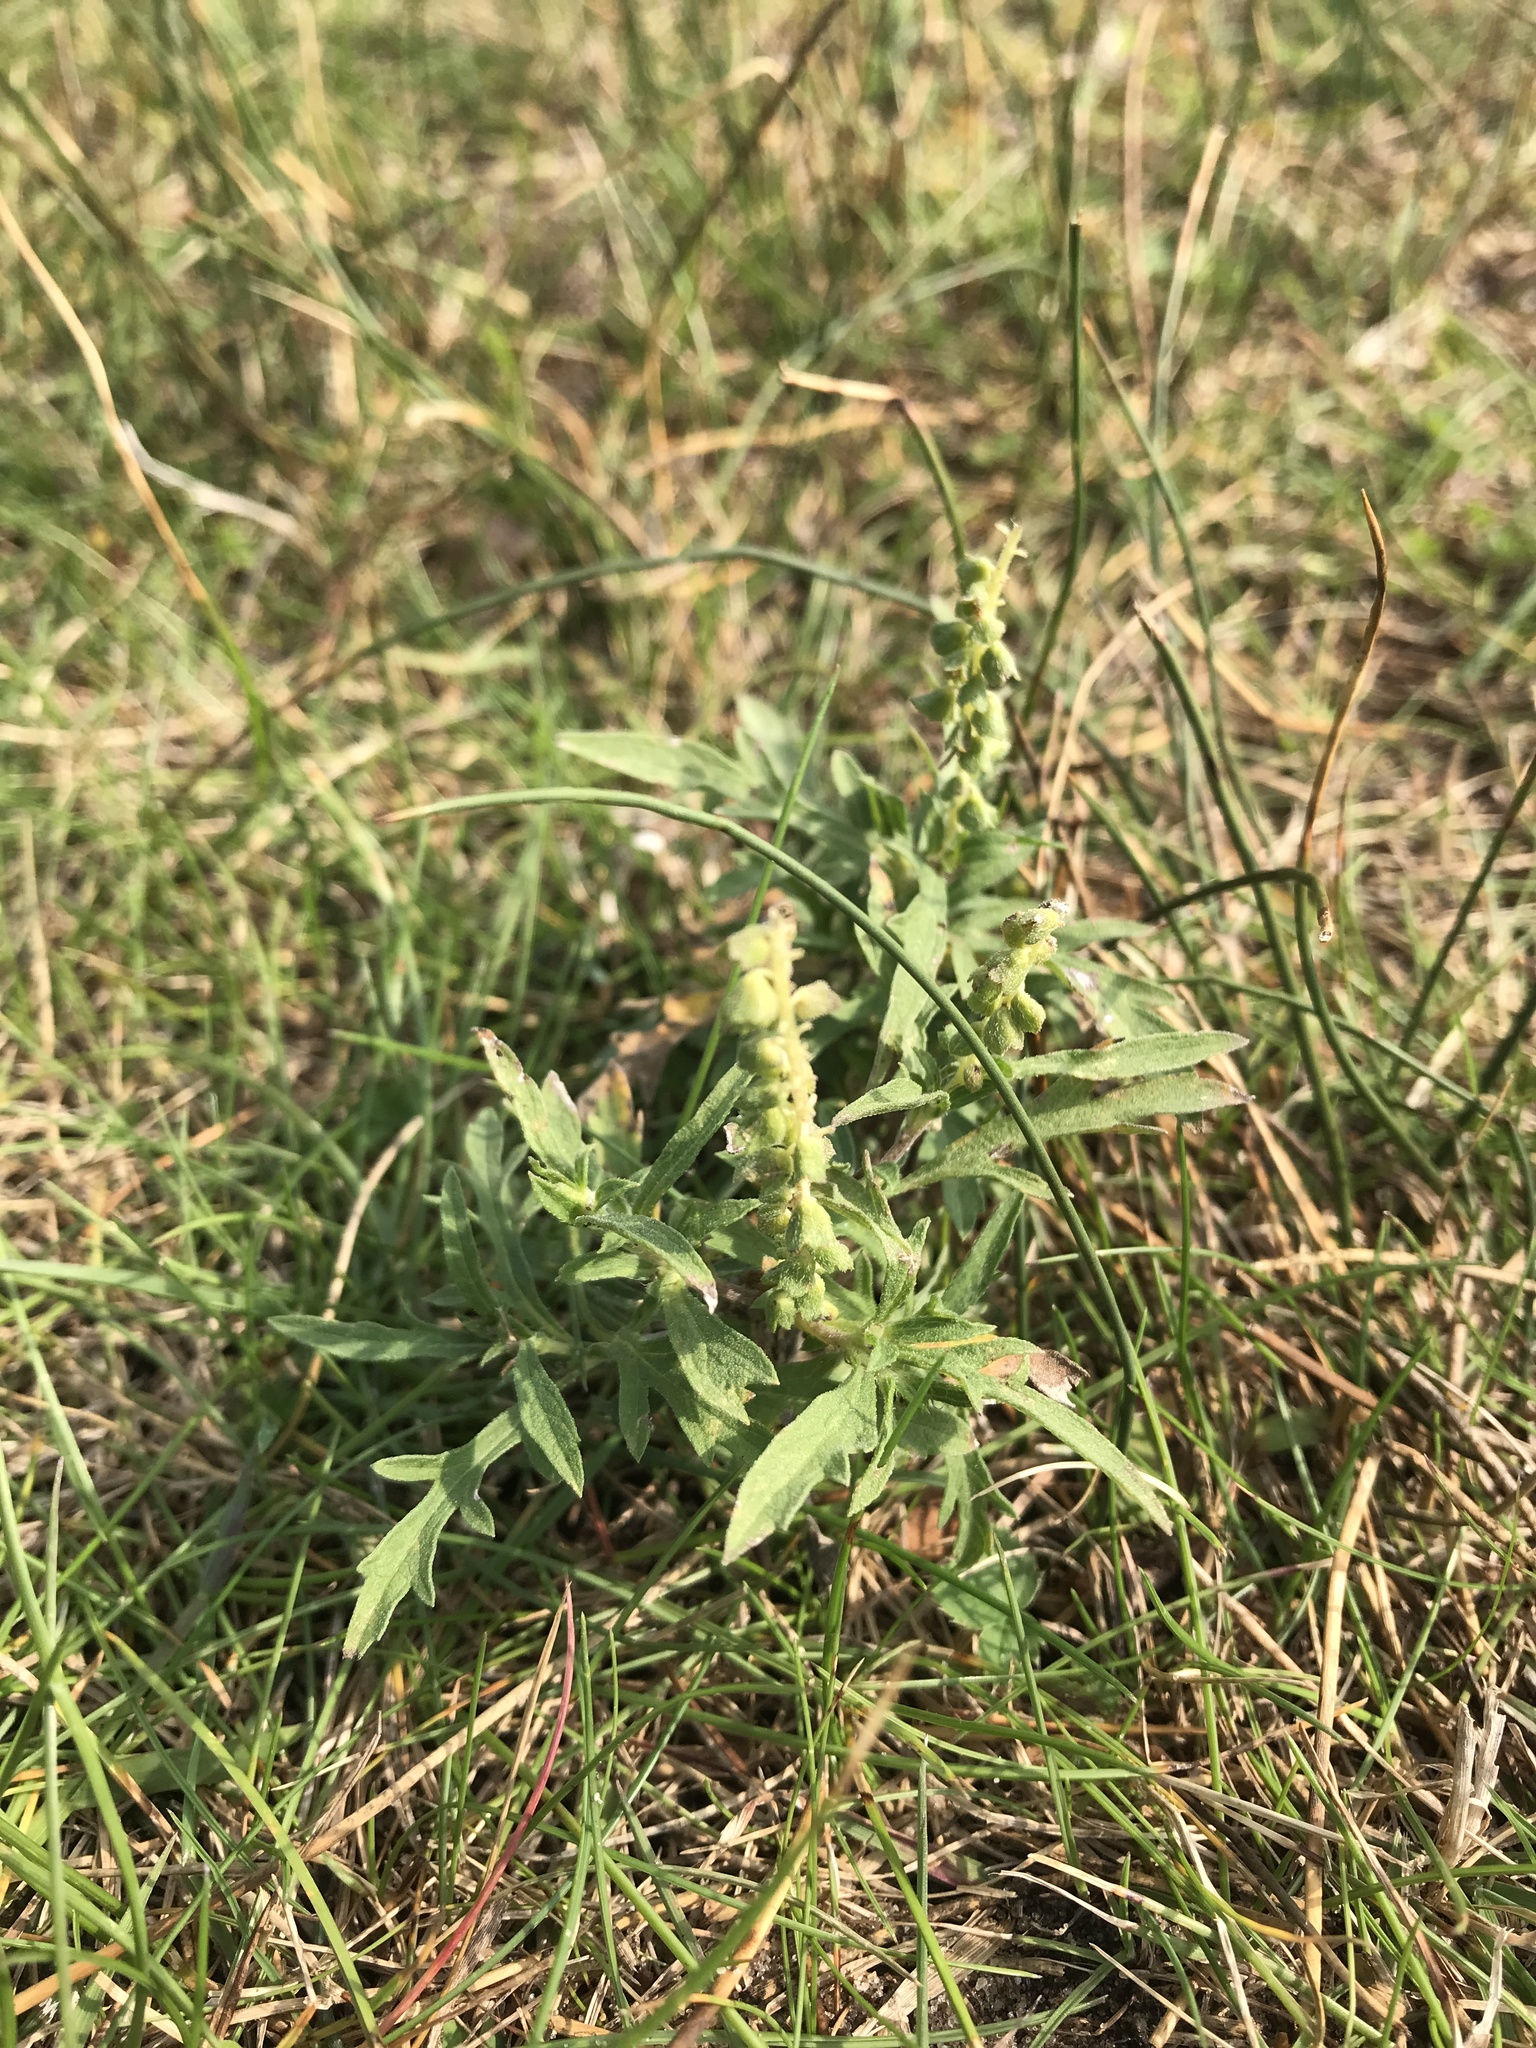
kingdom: Plantae
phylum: Tracheophyta
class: Magnoliopsida
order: Asterales
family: Asteraceae
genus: Ambrosia
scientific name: Ambrosia artemisiifolia
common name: Annual ragweed
